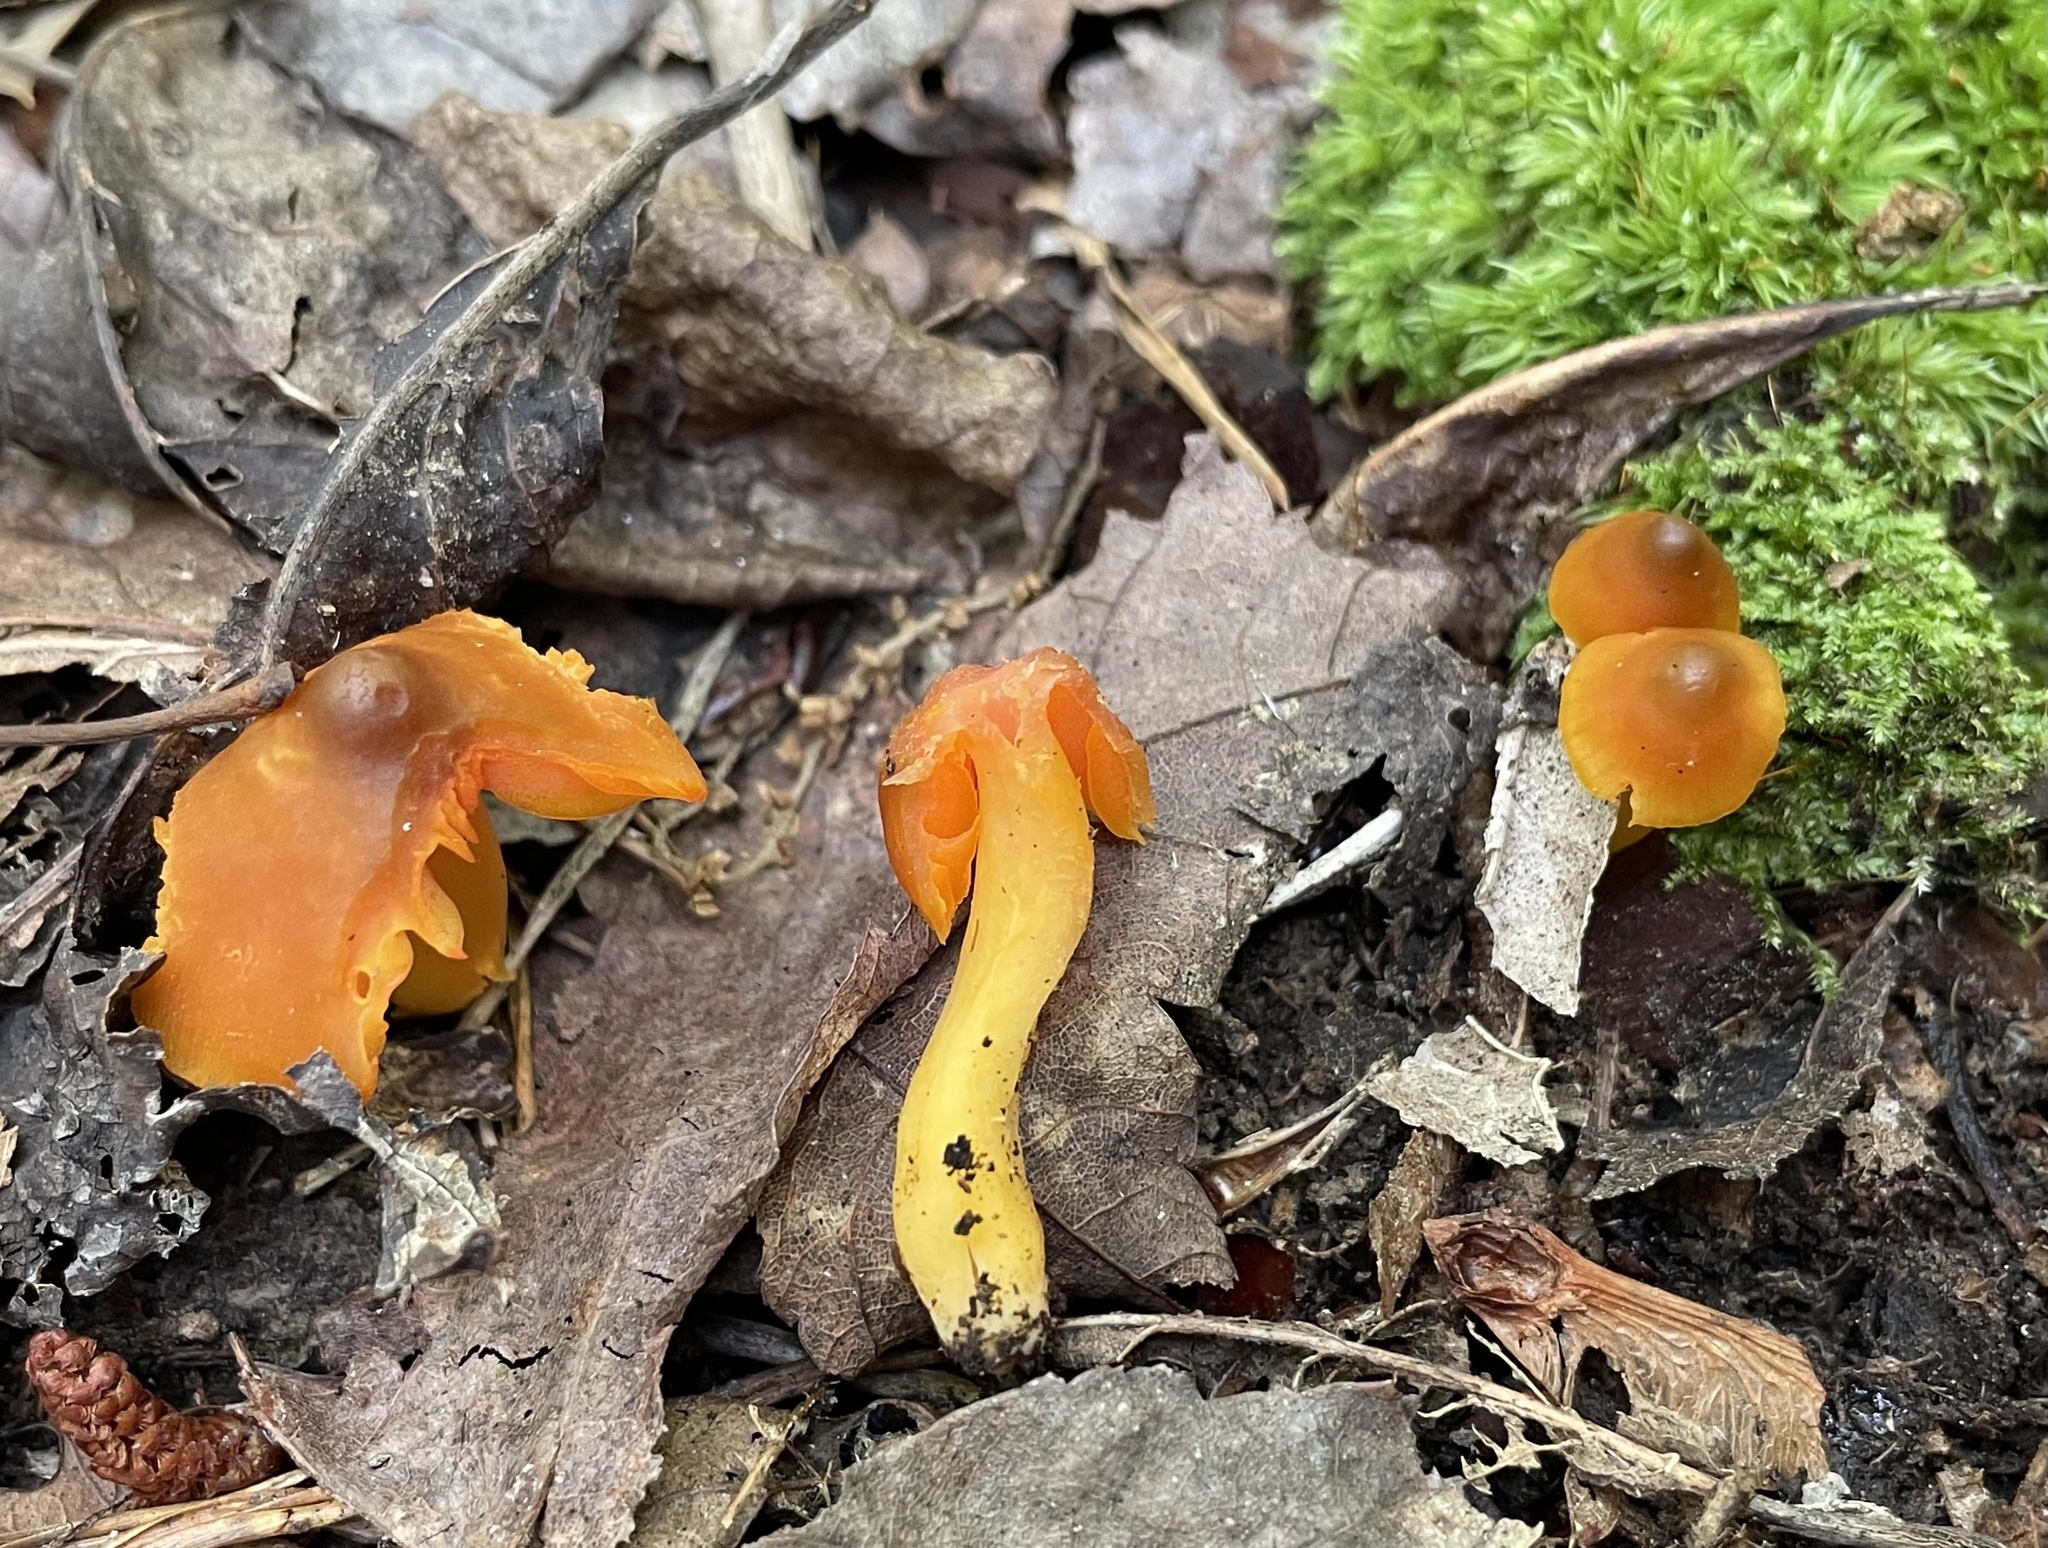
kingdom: Fungi
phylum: Basidiomycota
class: Agaricomycetes
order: Agaricales
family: Hygrophoraceae
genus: Humidicutis
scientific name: Humidicutis marginata
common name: Orange gilled waxcap
